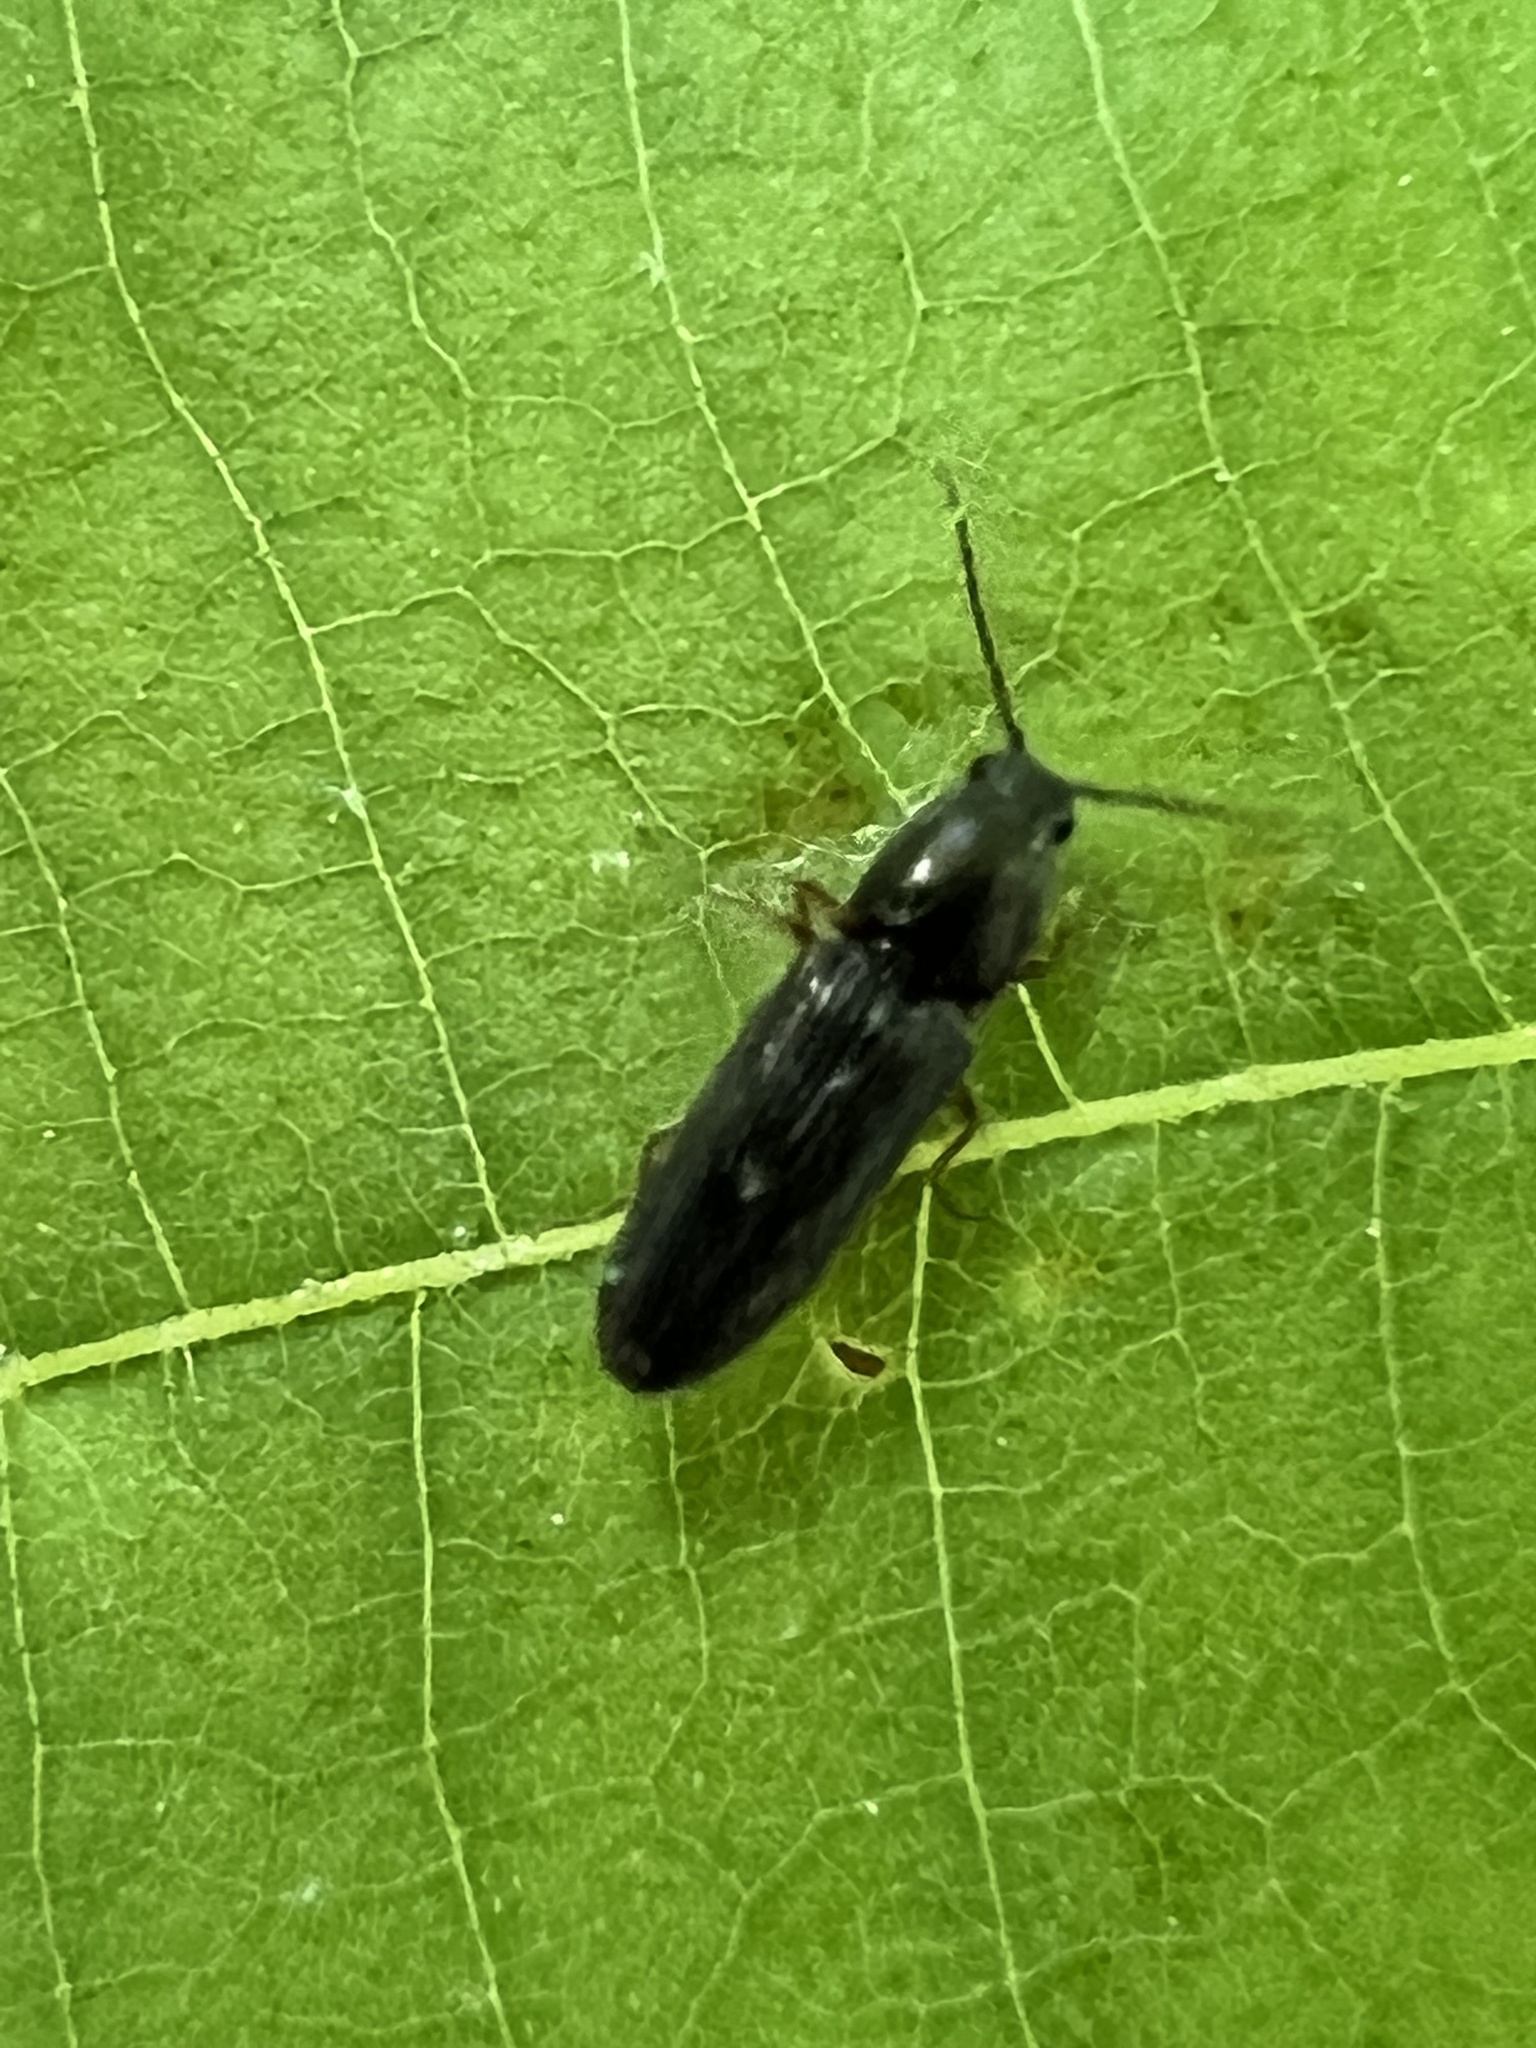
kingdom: Animalia
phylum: Arthropoda
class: Insecta
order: Coleoptera
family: Elateridae
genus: Limonius
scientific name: Limonius quercinus
